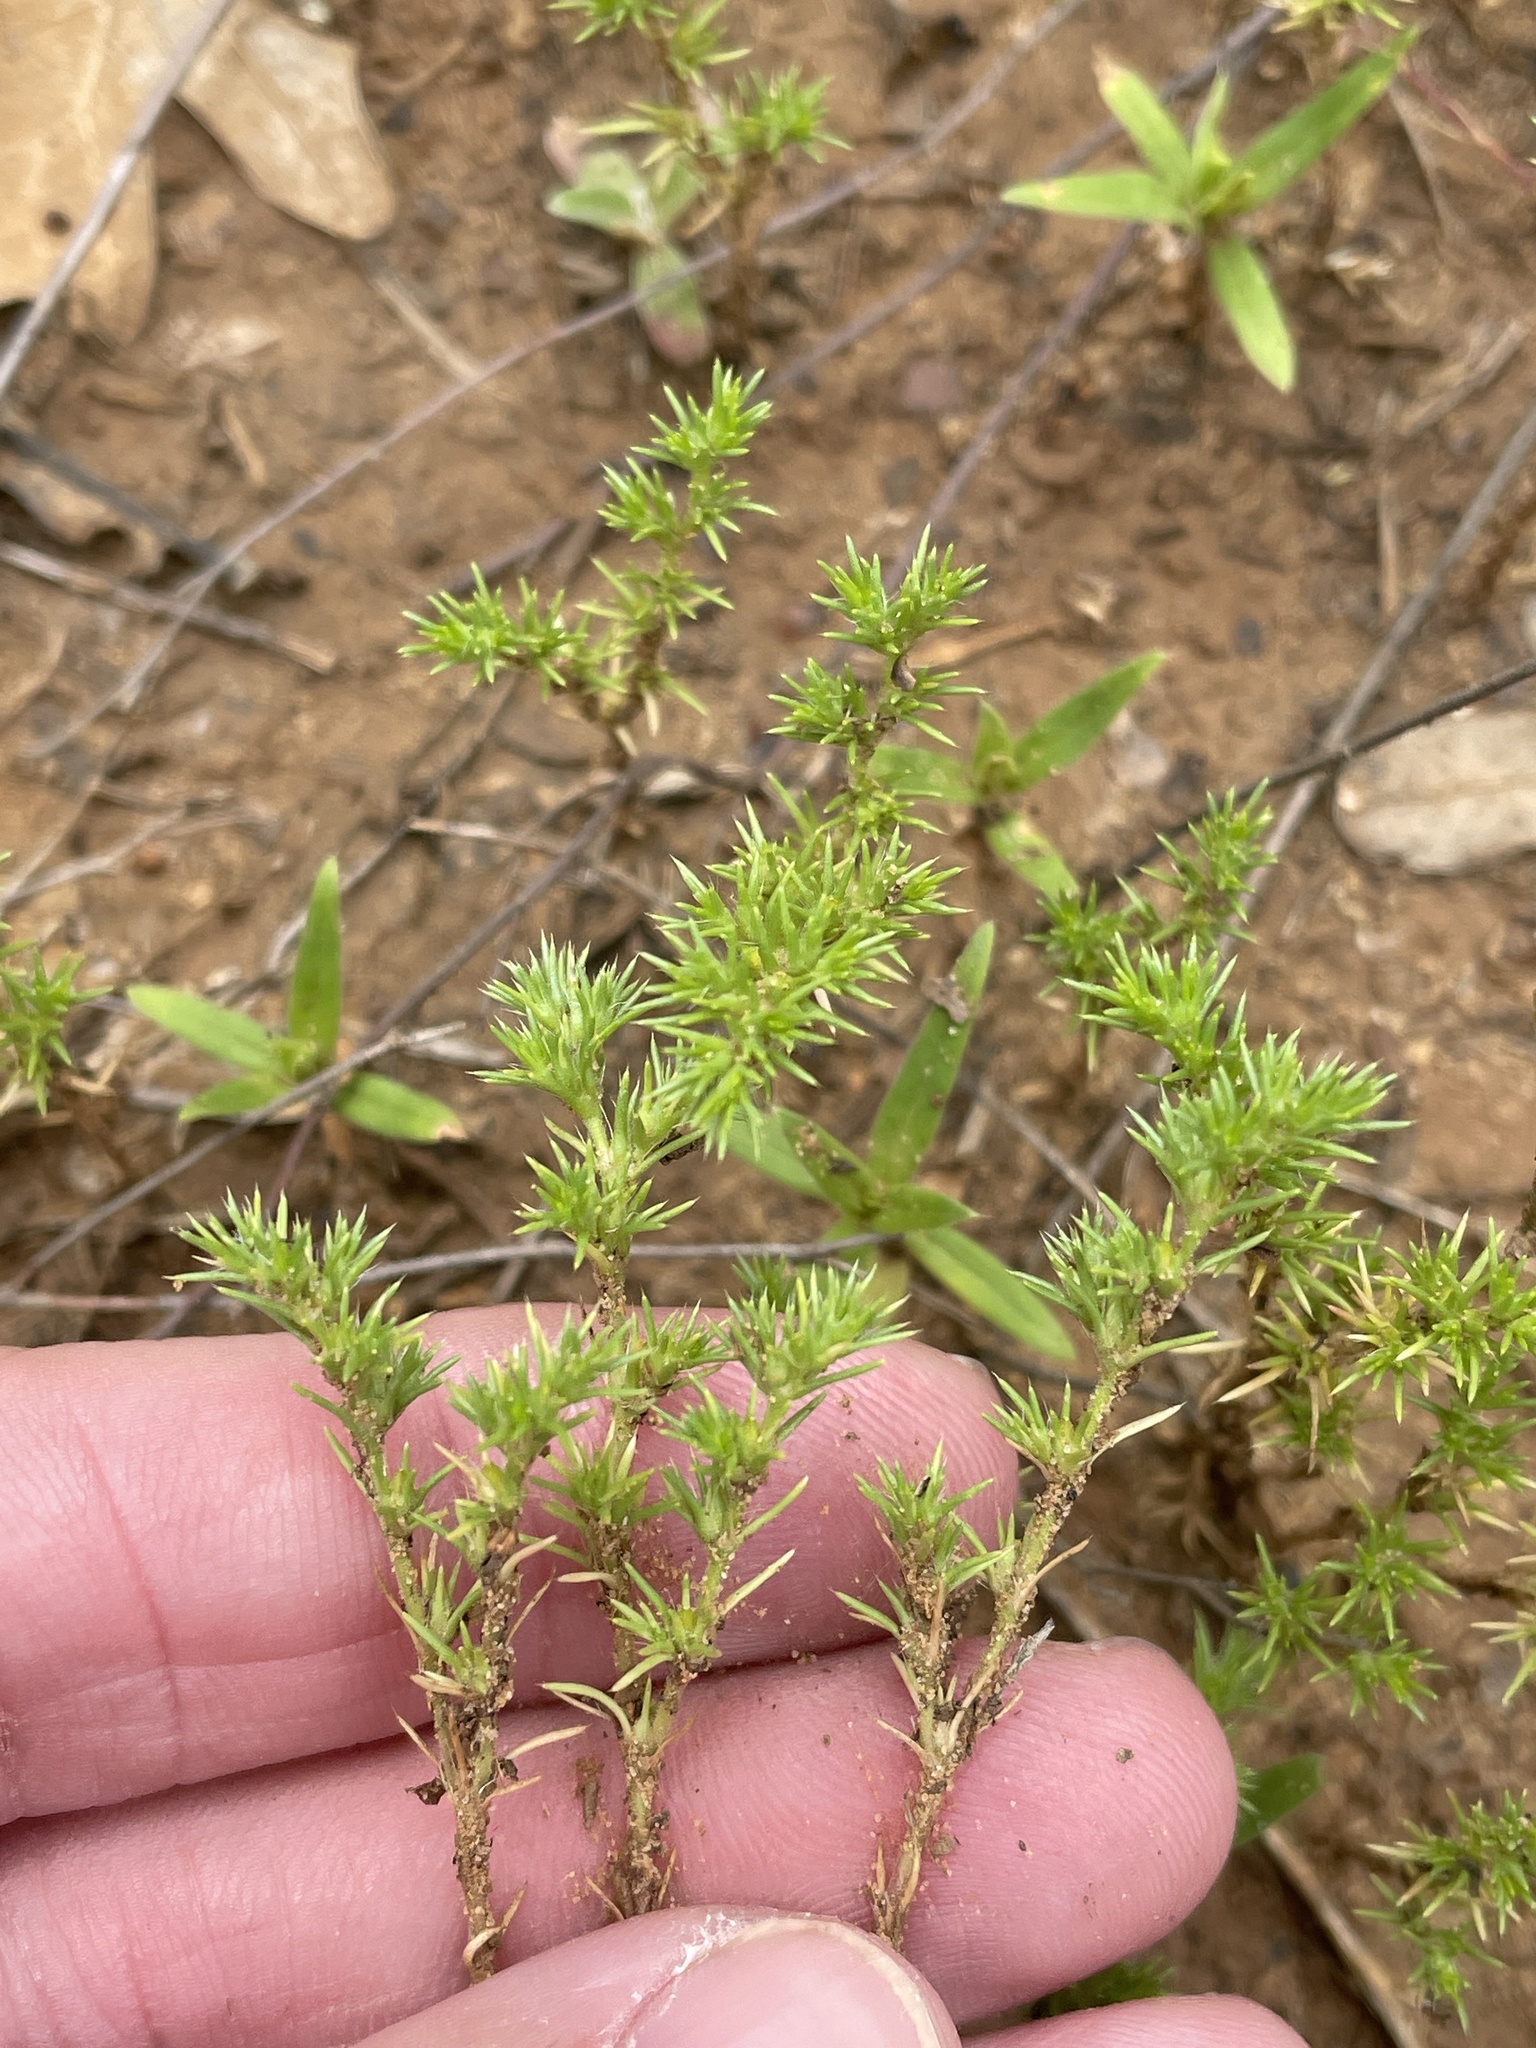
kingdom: Plantae
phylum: Tracheophyta
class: Magnoliopsida
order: Caryophyllales
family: Caryophyllaceae
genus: Loeflingia
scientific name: Loeflingia squarrosa
